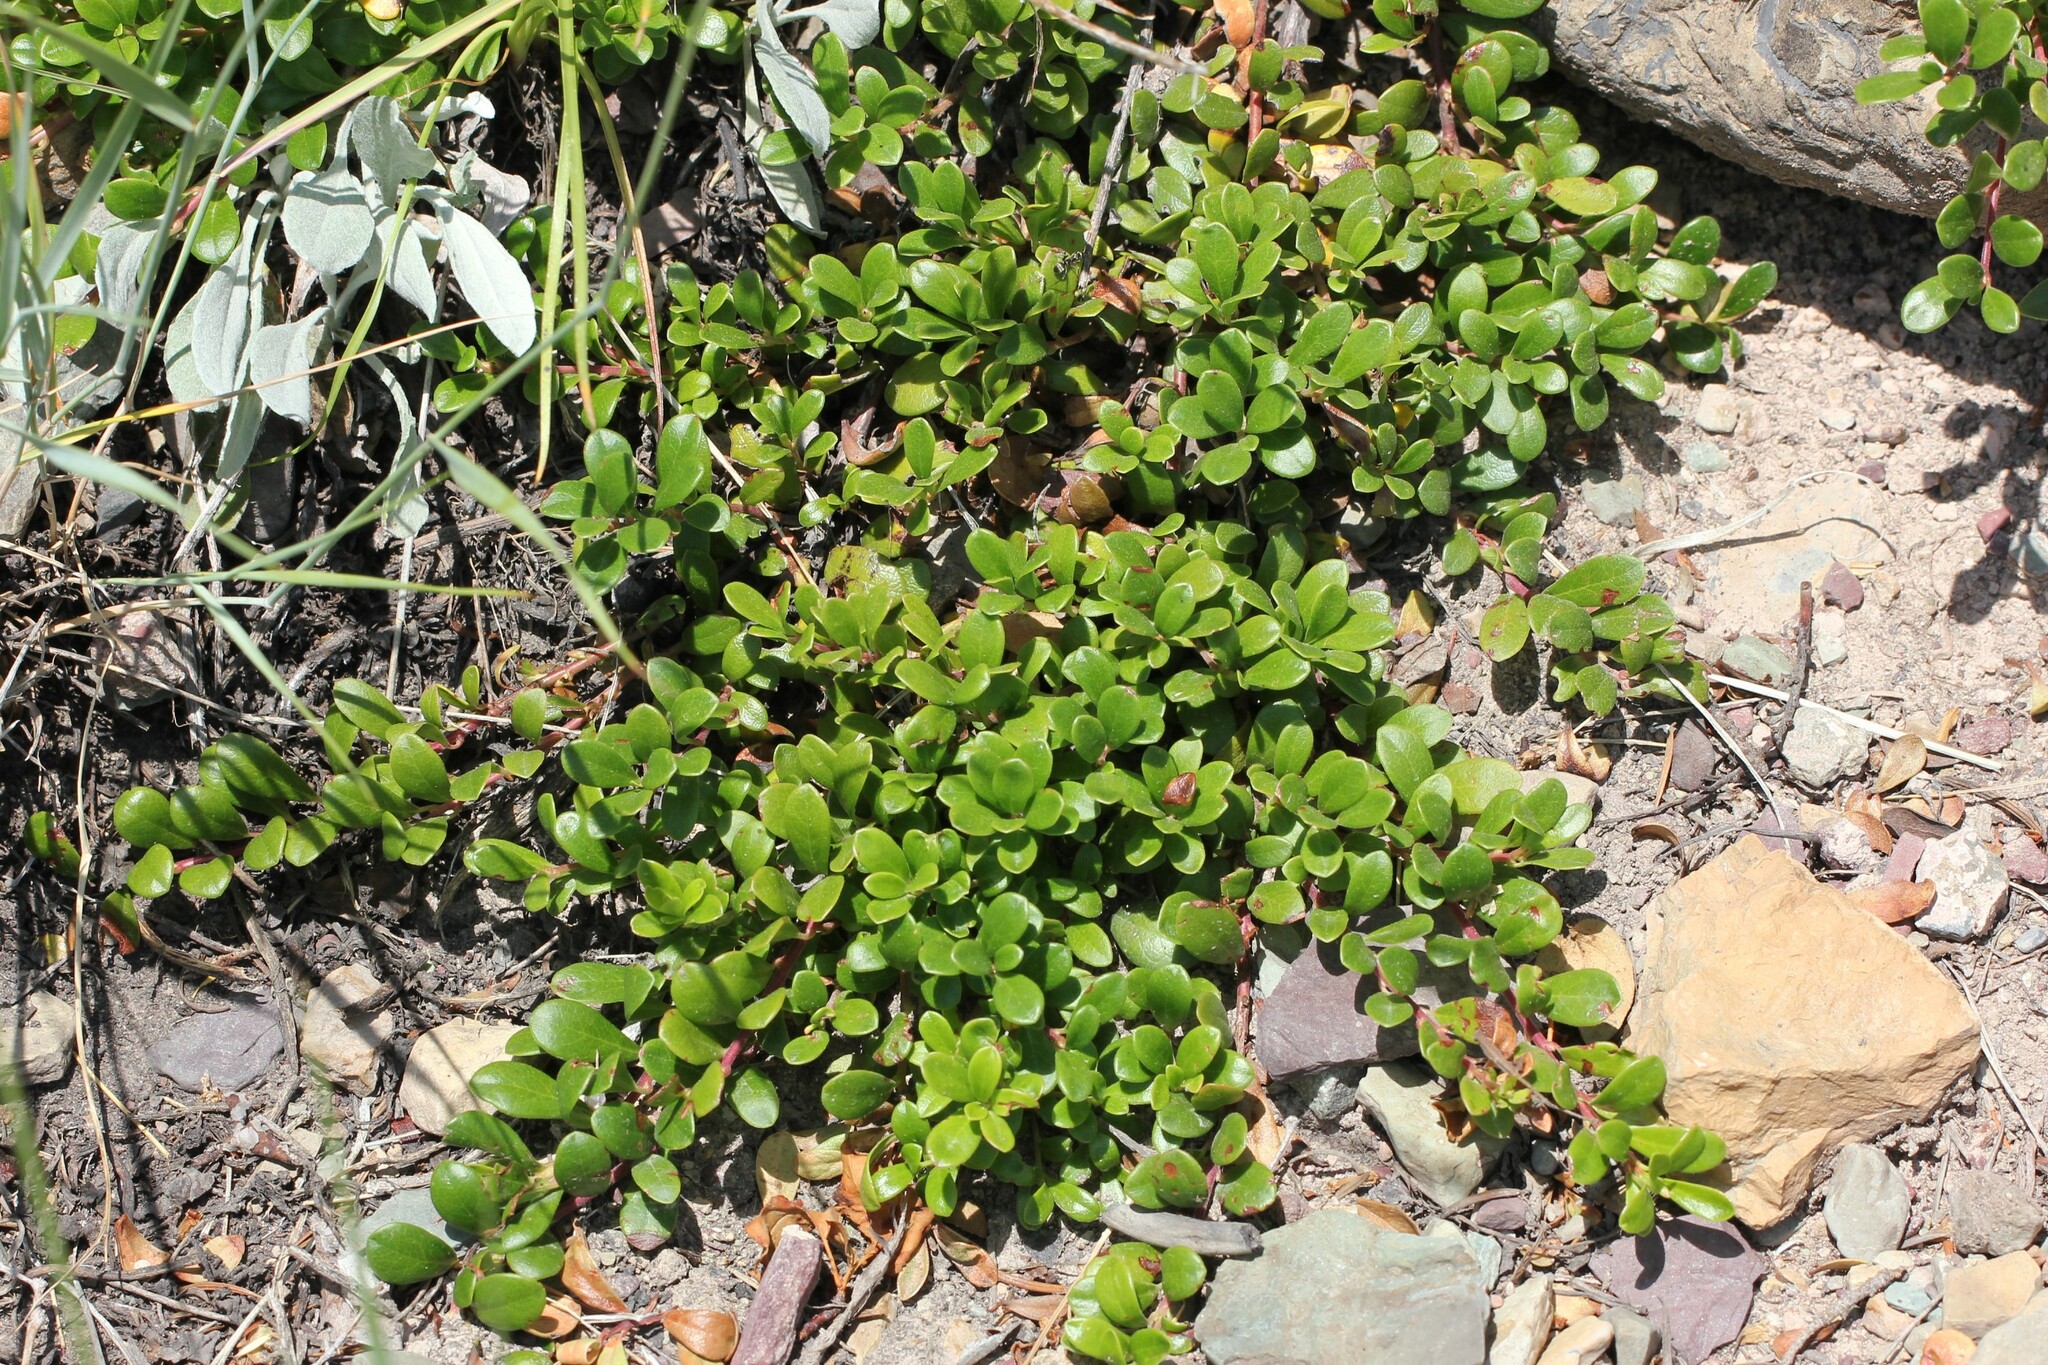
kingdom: Plantae
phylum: Tracheophyta
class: Magnoliopsida
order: Ericales
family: Ericaceae
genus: Arctostaphylos
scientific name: Arctostaphylos uva-ursi
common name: Bearberry
